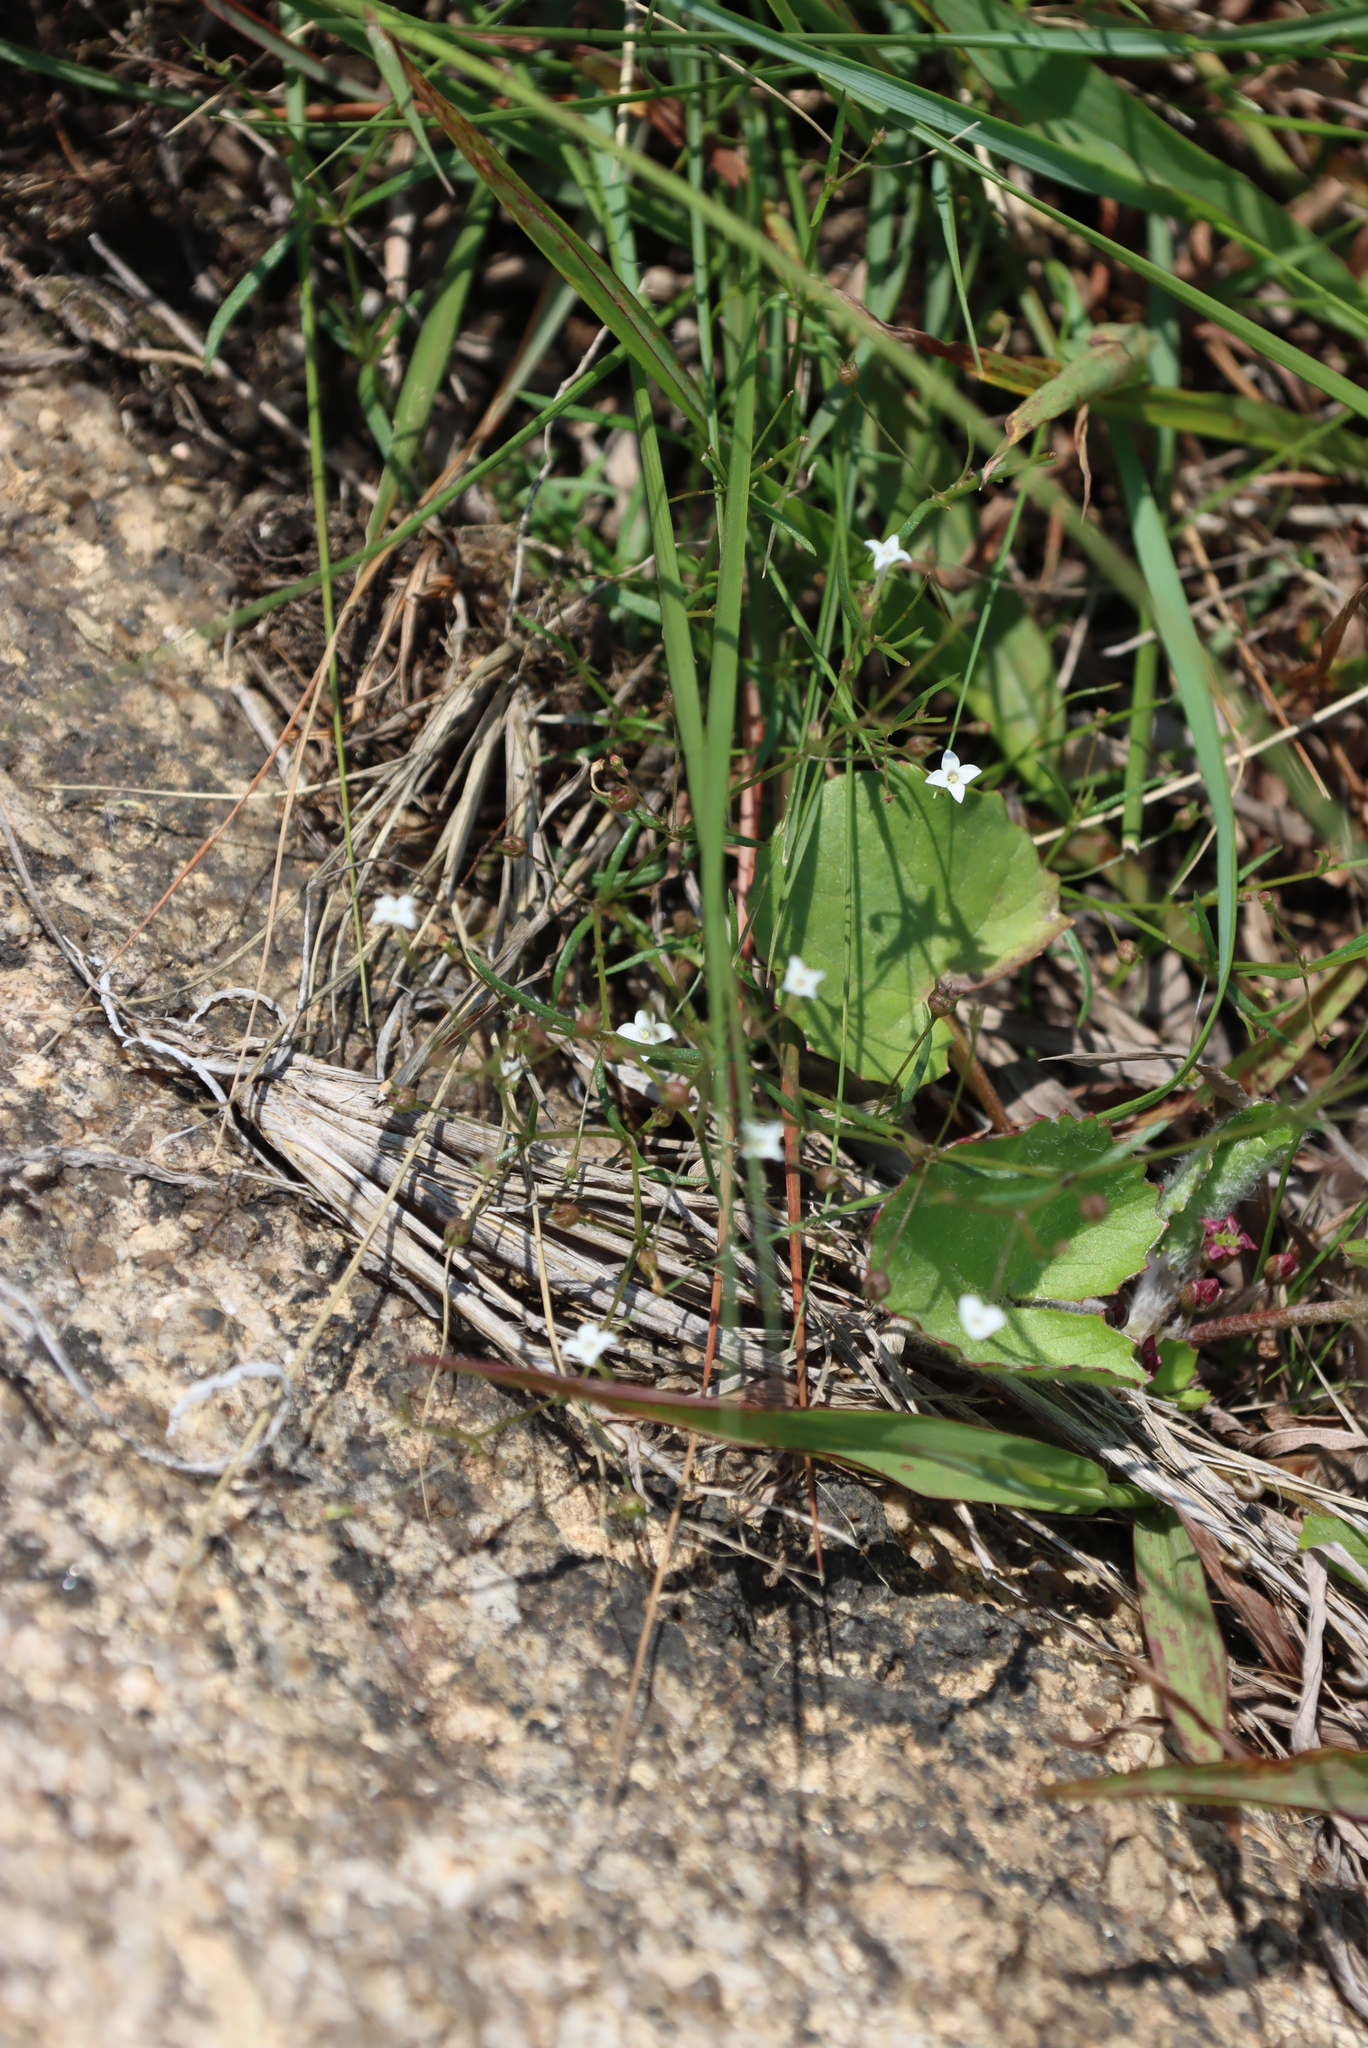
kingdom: Plantae
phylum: Tracheophyta
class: Magnoliopsida
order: Apiales
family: Apiaceae
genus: Centella
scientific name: Centella asiatica
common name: Spadeleaf
